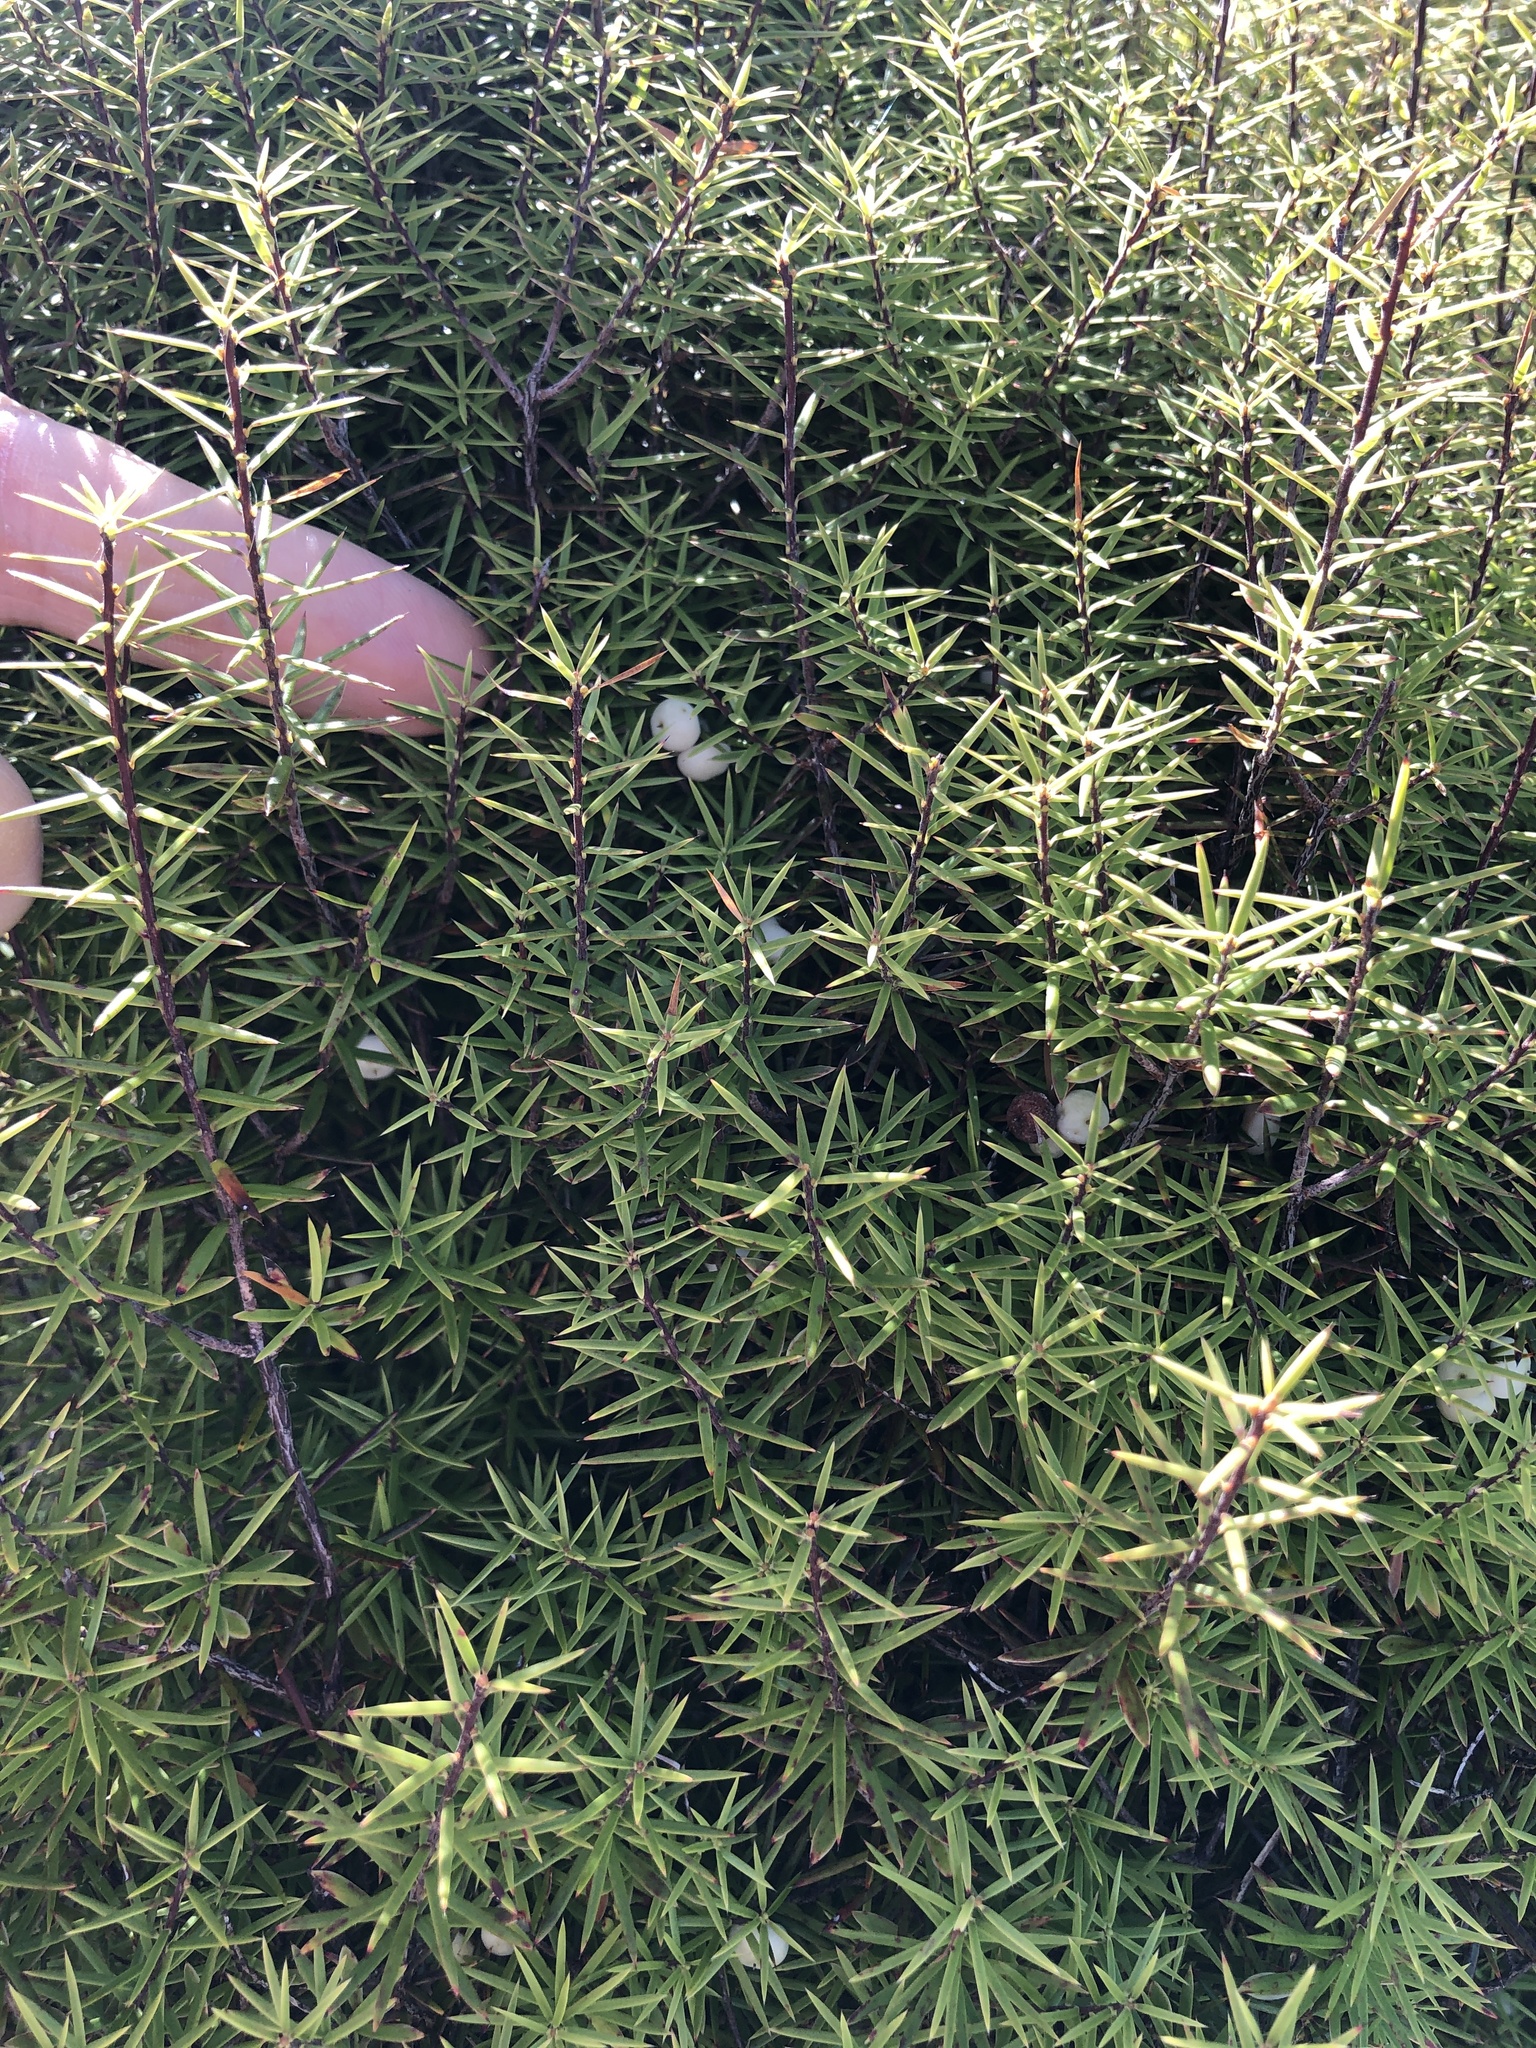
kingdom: Plantae
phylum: Tracheophyta
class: Magnoliopsida
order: Ericales
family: Ericaceae
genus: Leptecophylla
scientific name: Leptecophylla juniperina
